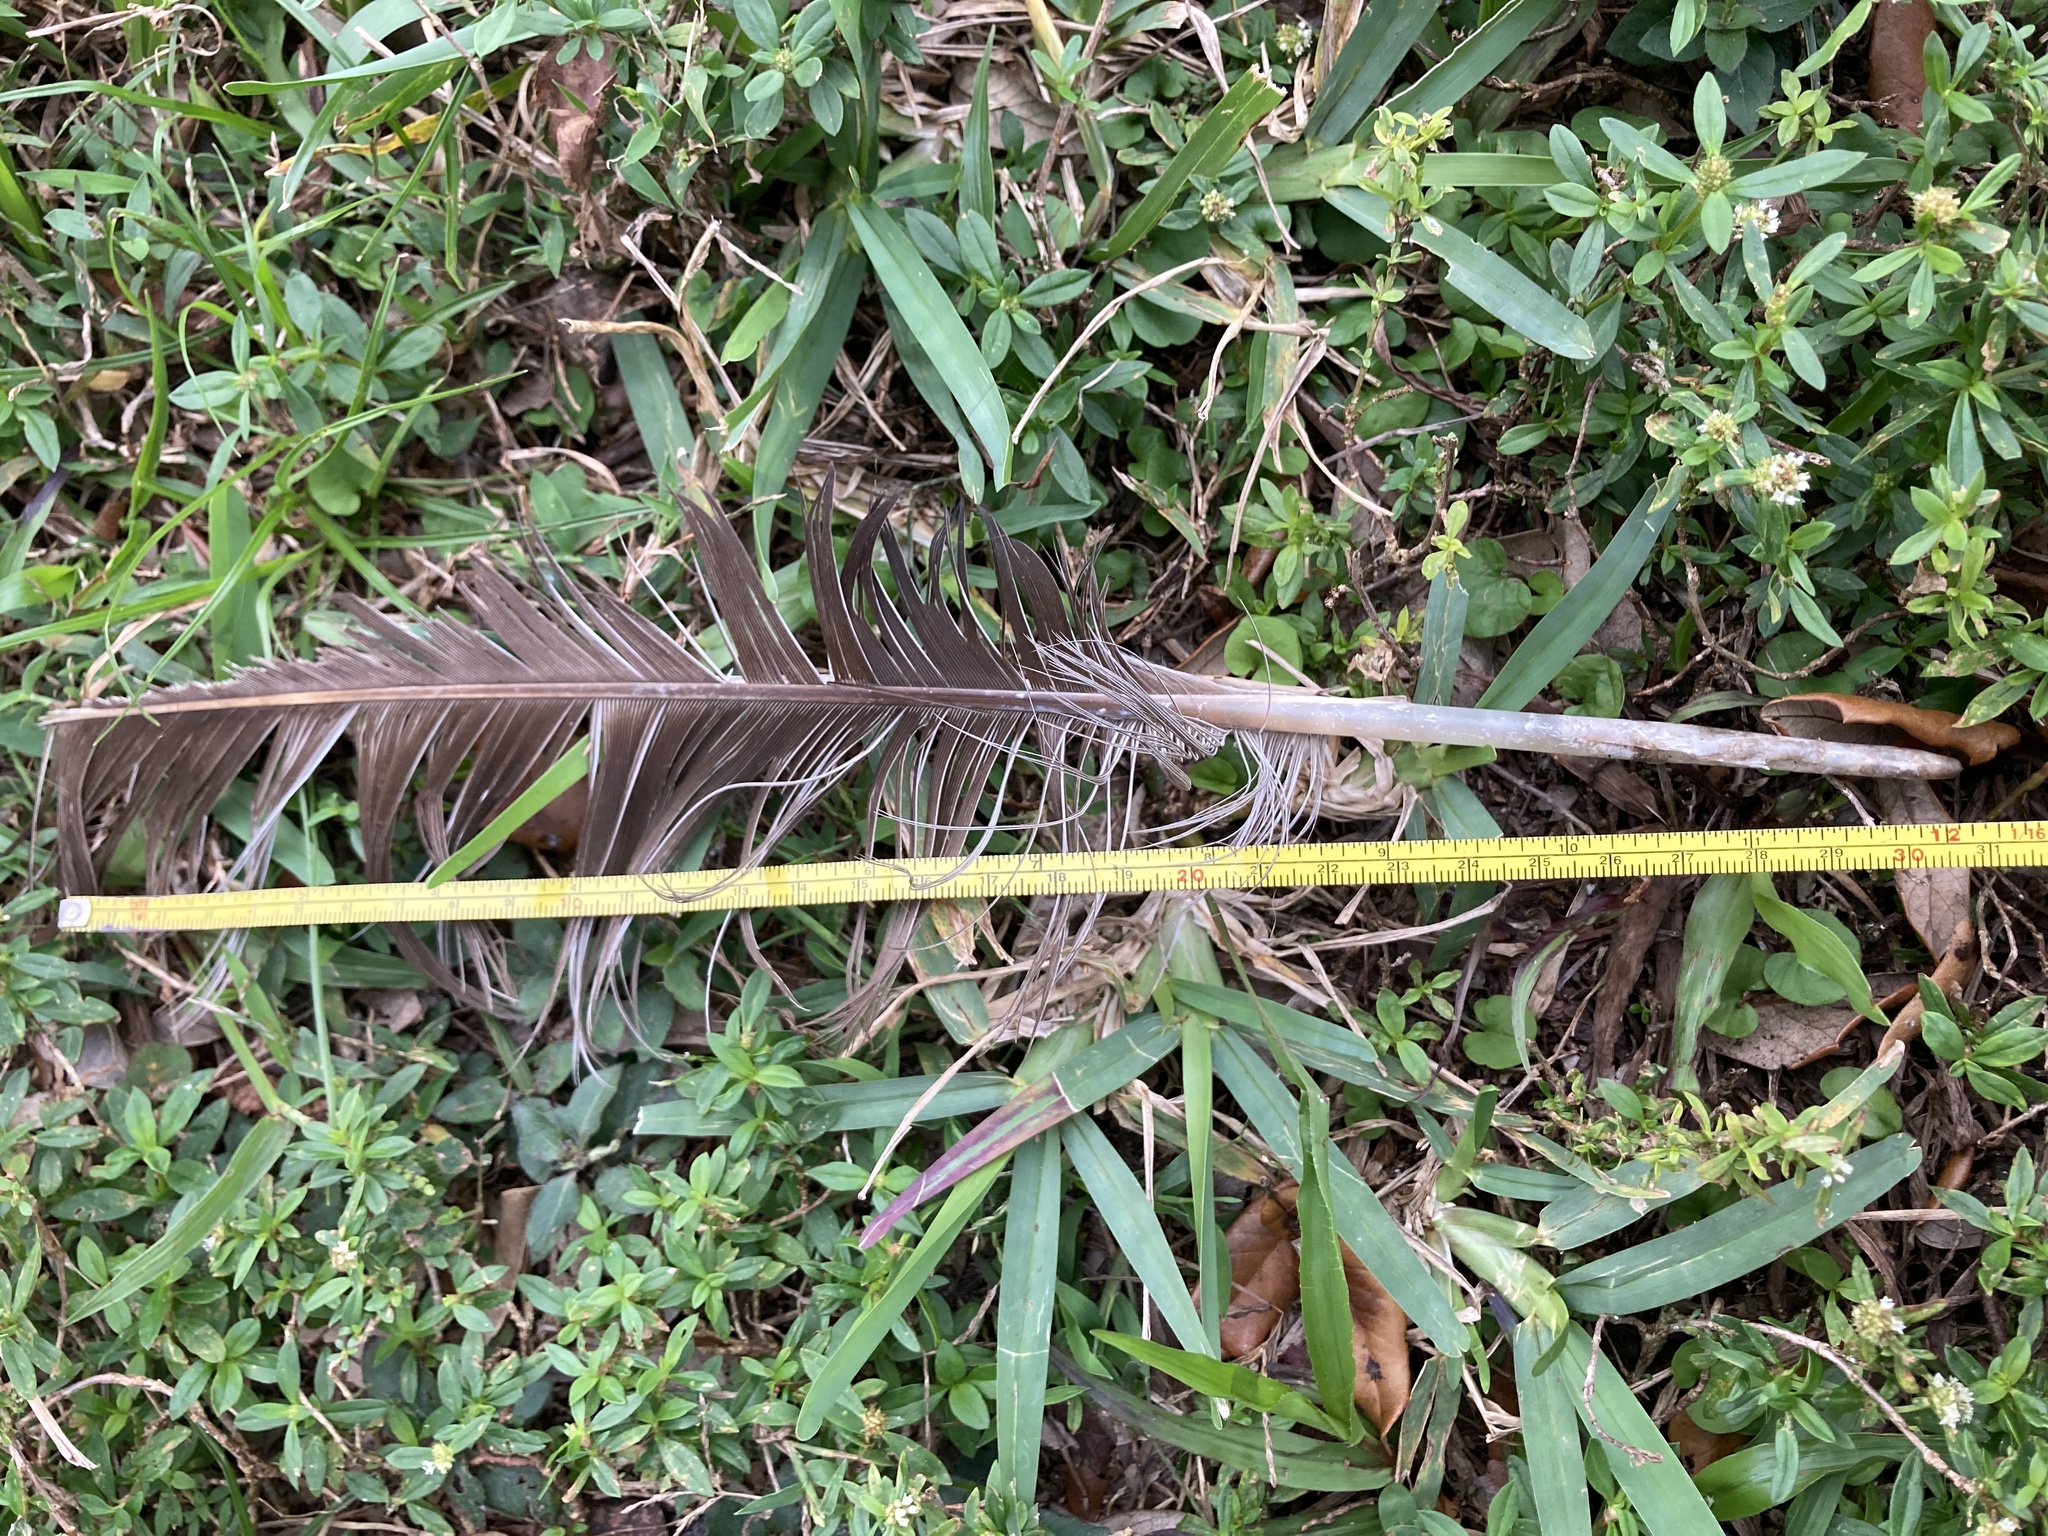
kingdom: Animalia
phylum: Chordata
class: Aves
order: Accipitriformes
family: Cathartidae
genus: Cathartes
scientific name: Cathartes aura
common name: Turkey vulture
